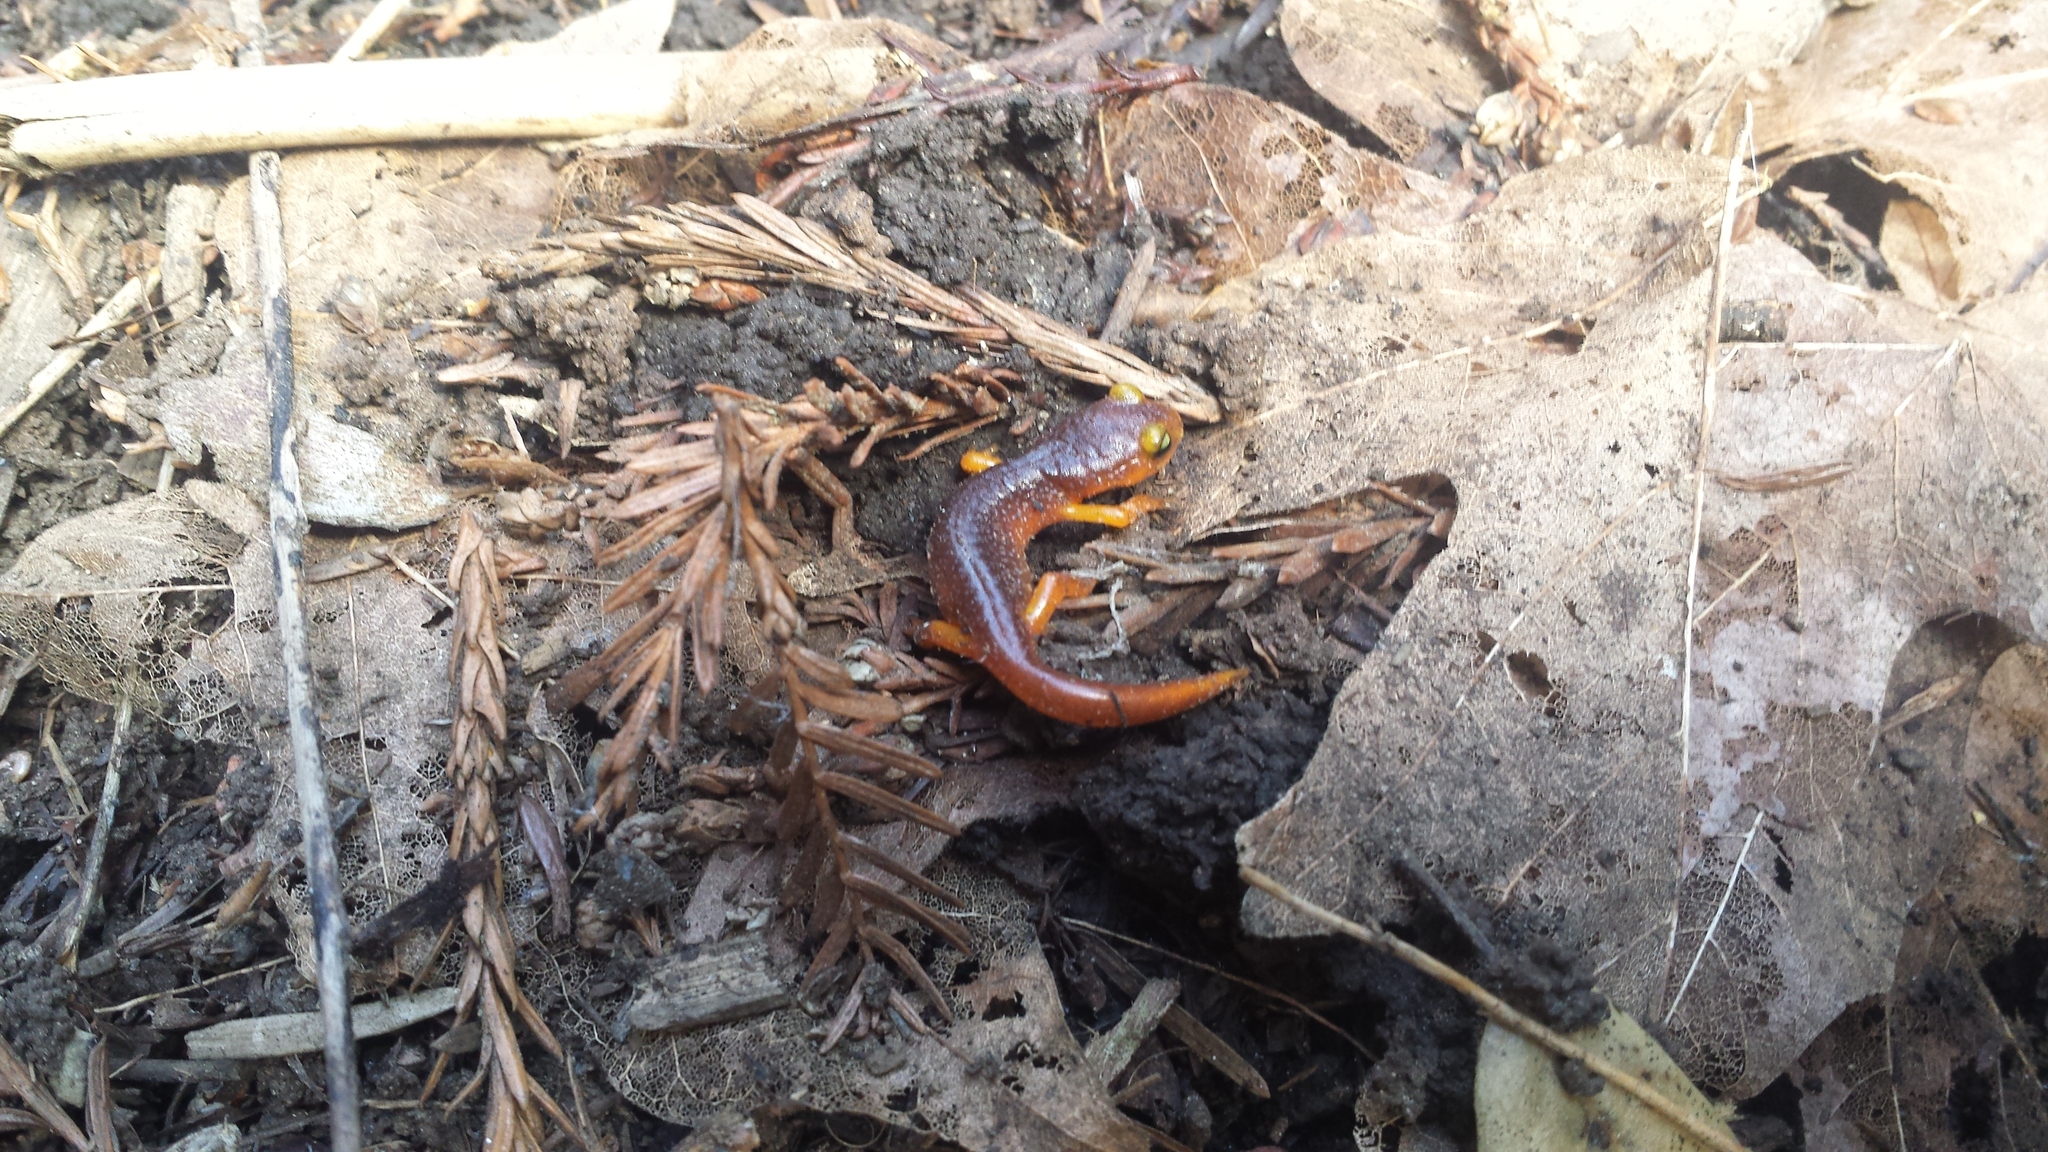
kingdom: Animalia
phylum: Chordata
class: Amphibia
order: Caudata
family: Plethodontidae
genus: Ensatina
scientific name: Ensatina eschscholtzii
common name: Ensatina
